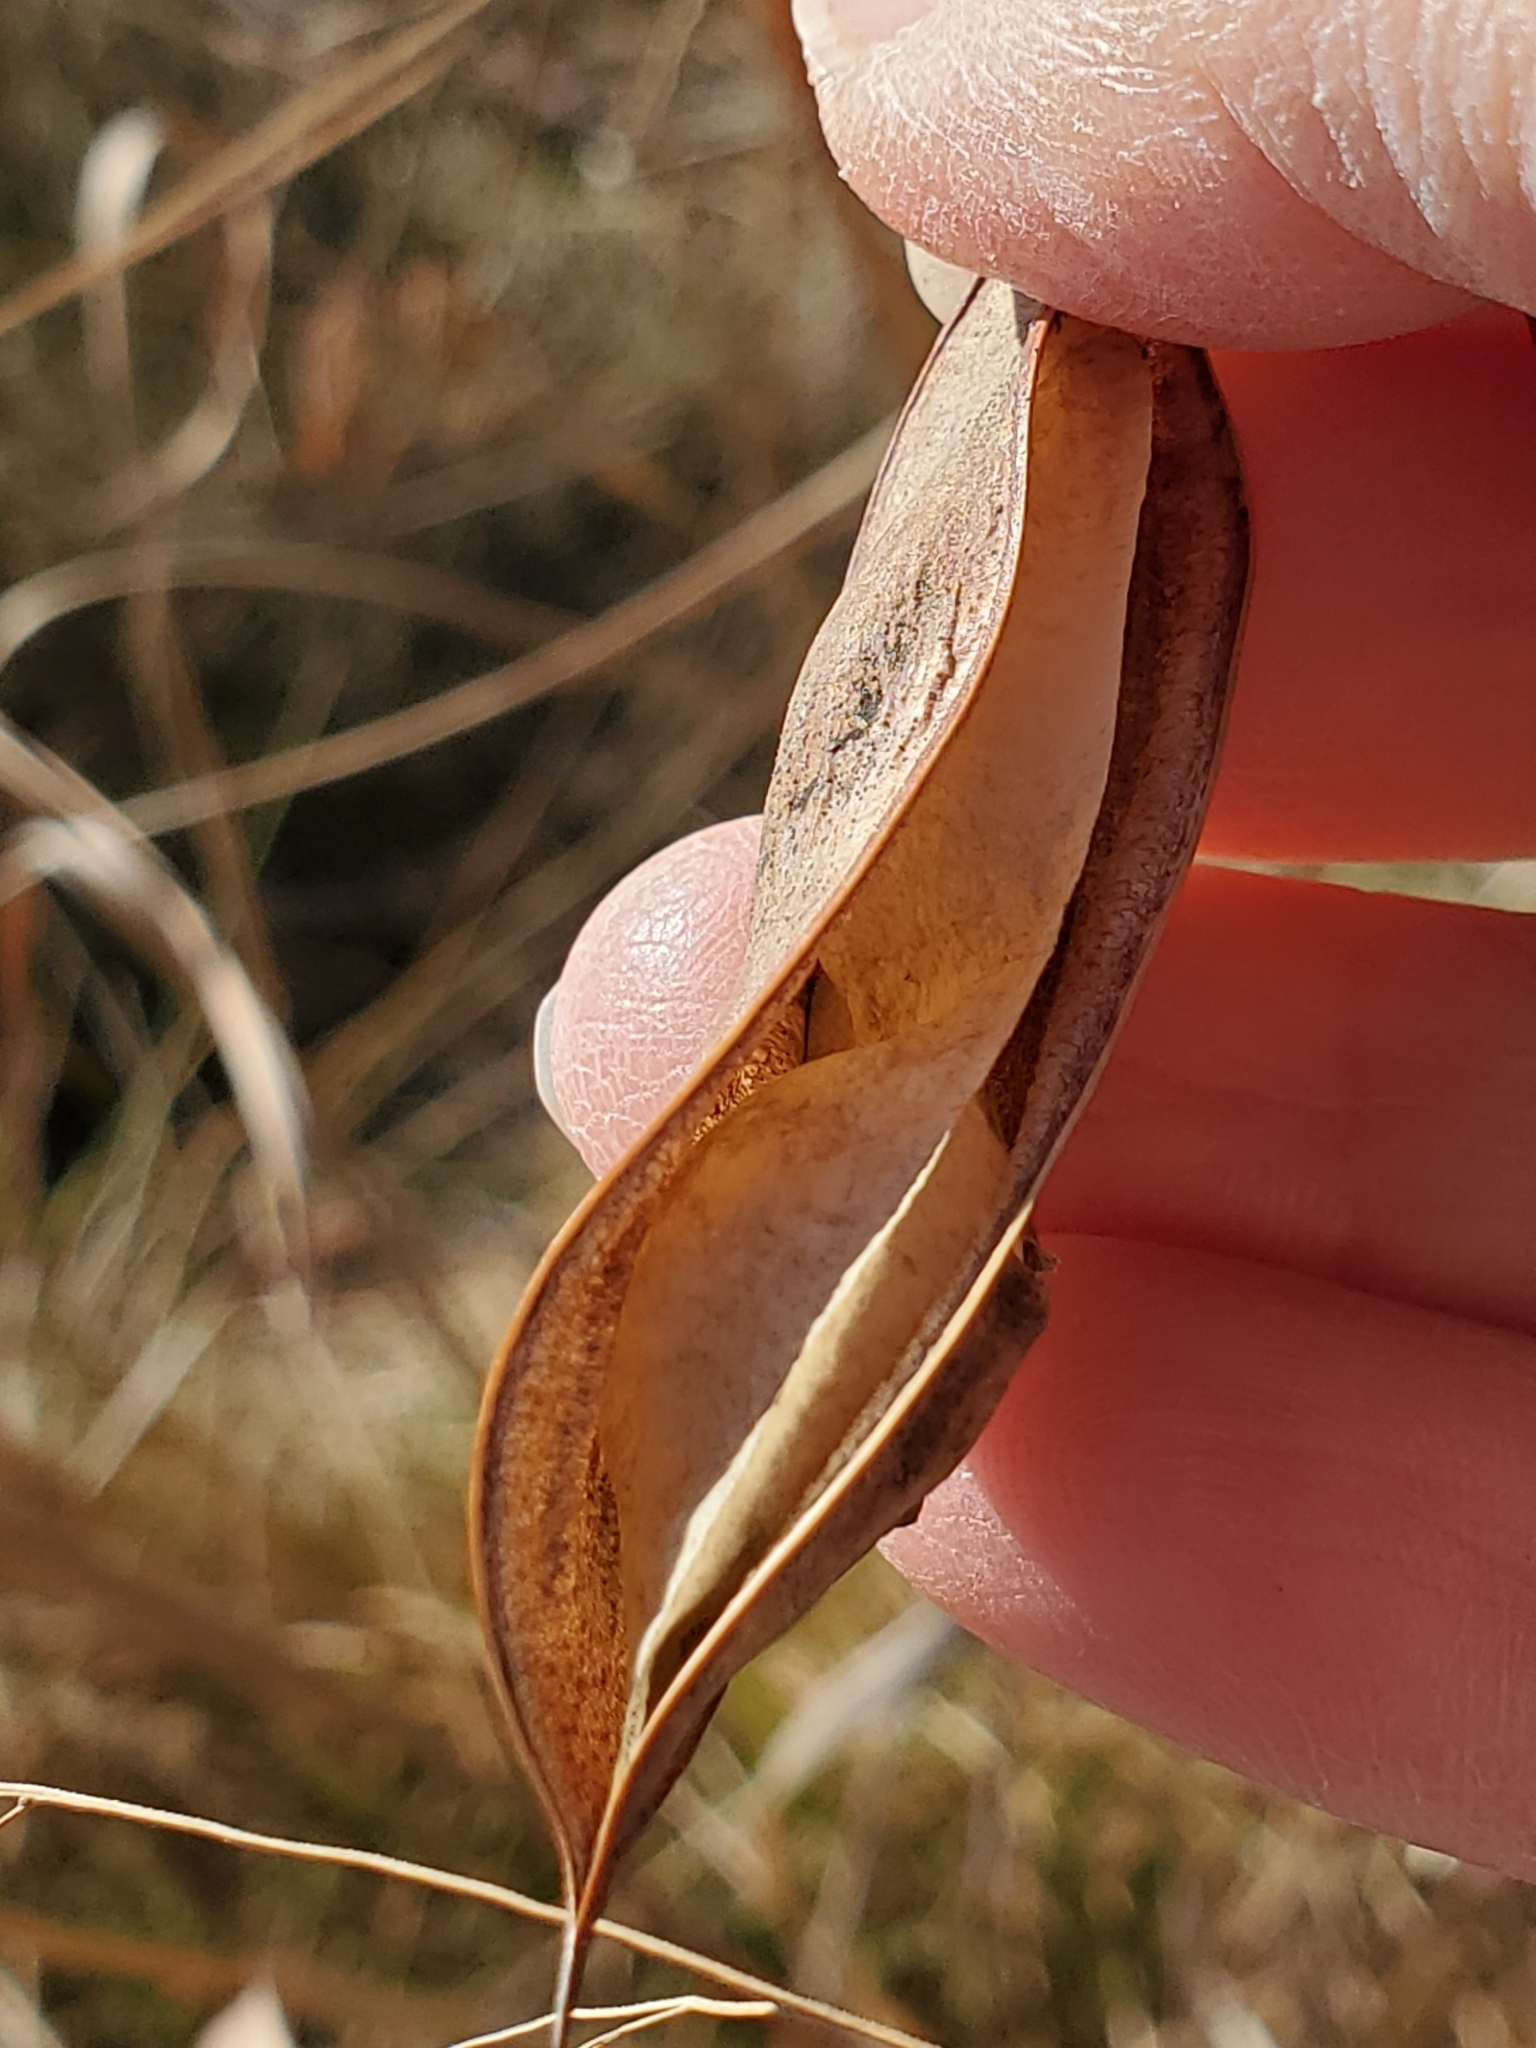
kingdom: Plantae
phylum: Tracheophyta
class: Magnoliopsida
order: Fabales
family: Fabaceae
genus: Sesbania
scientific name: Sesbania vesicaria
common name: Bagpod
